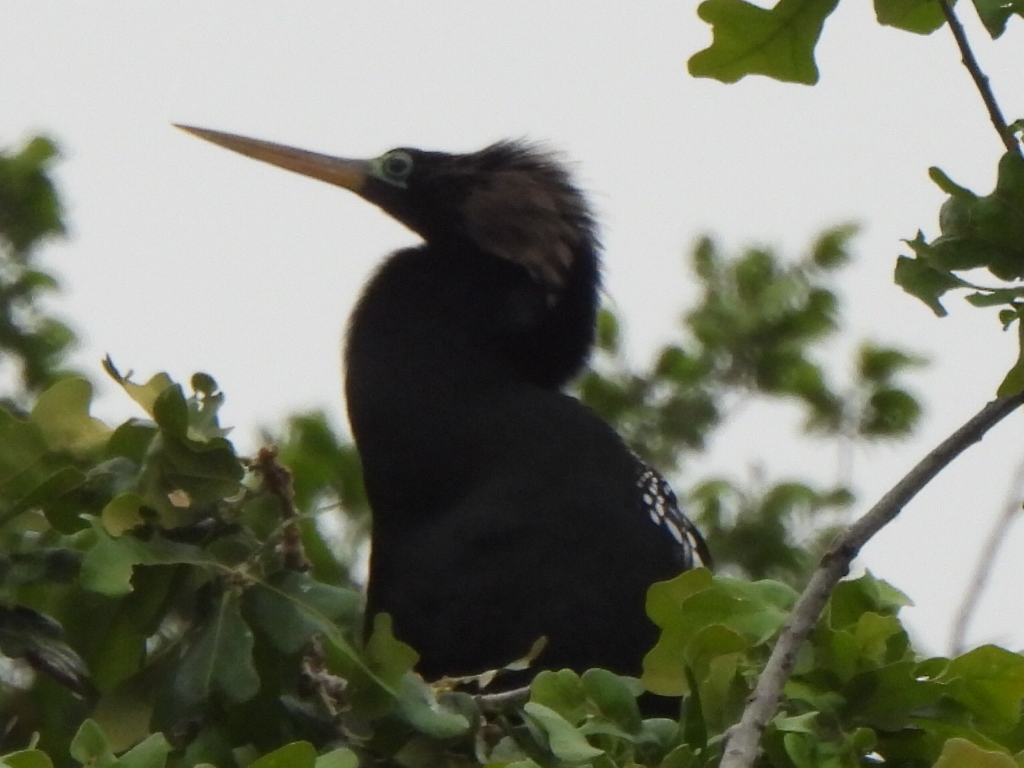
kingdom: Animalia
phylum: Chordata
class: Aves
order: Suliformes
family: Anhingidae
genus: Anhinga
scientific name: Anhinga anhinga
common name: Anhinga
